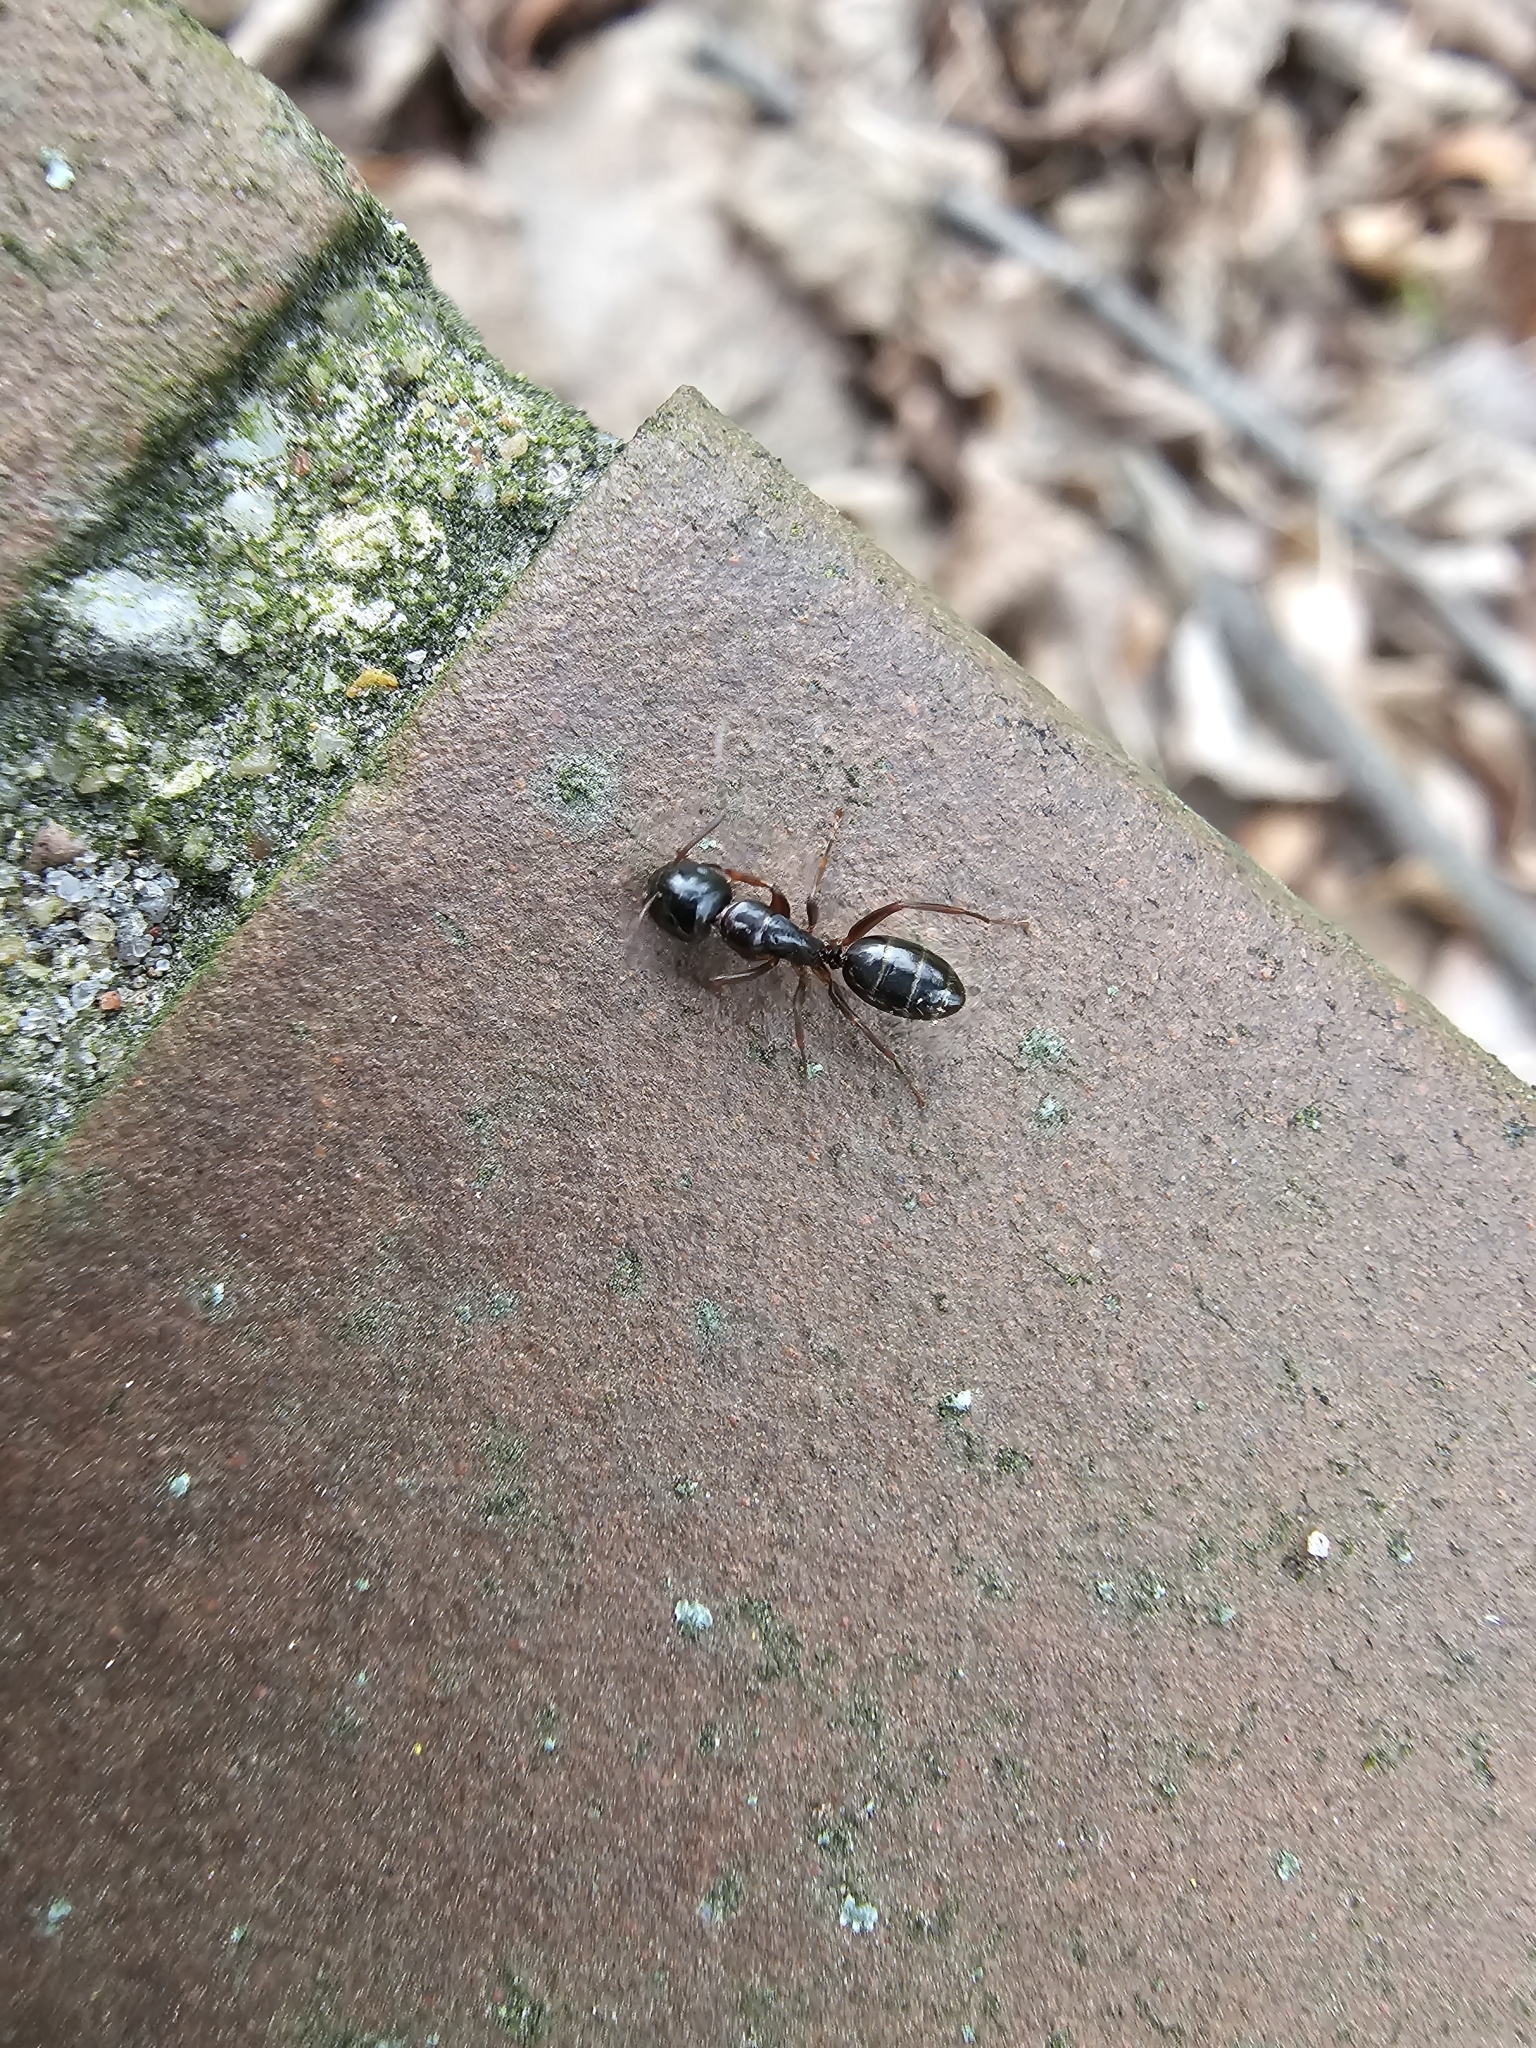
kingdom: Animalia
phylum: Arthropoda
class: Insecta
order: Hymenoptera
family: Formicidae
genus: Camponotus
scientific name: Camponotus fallax
